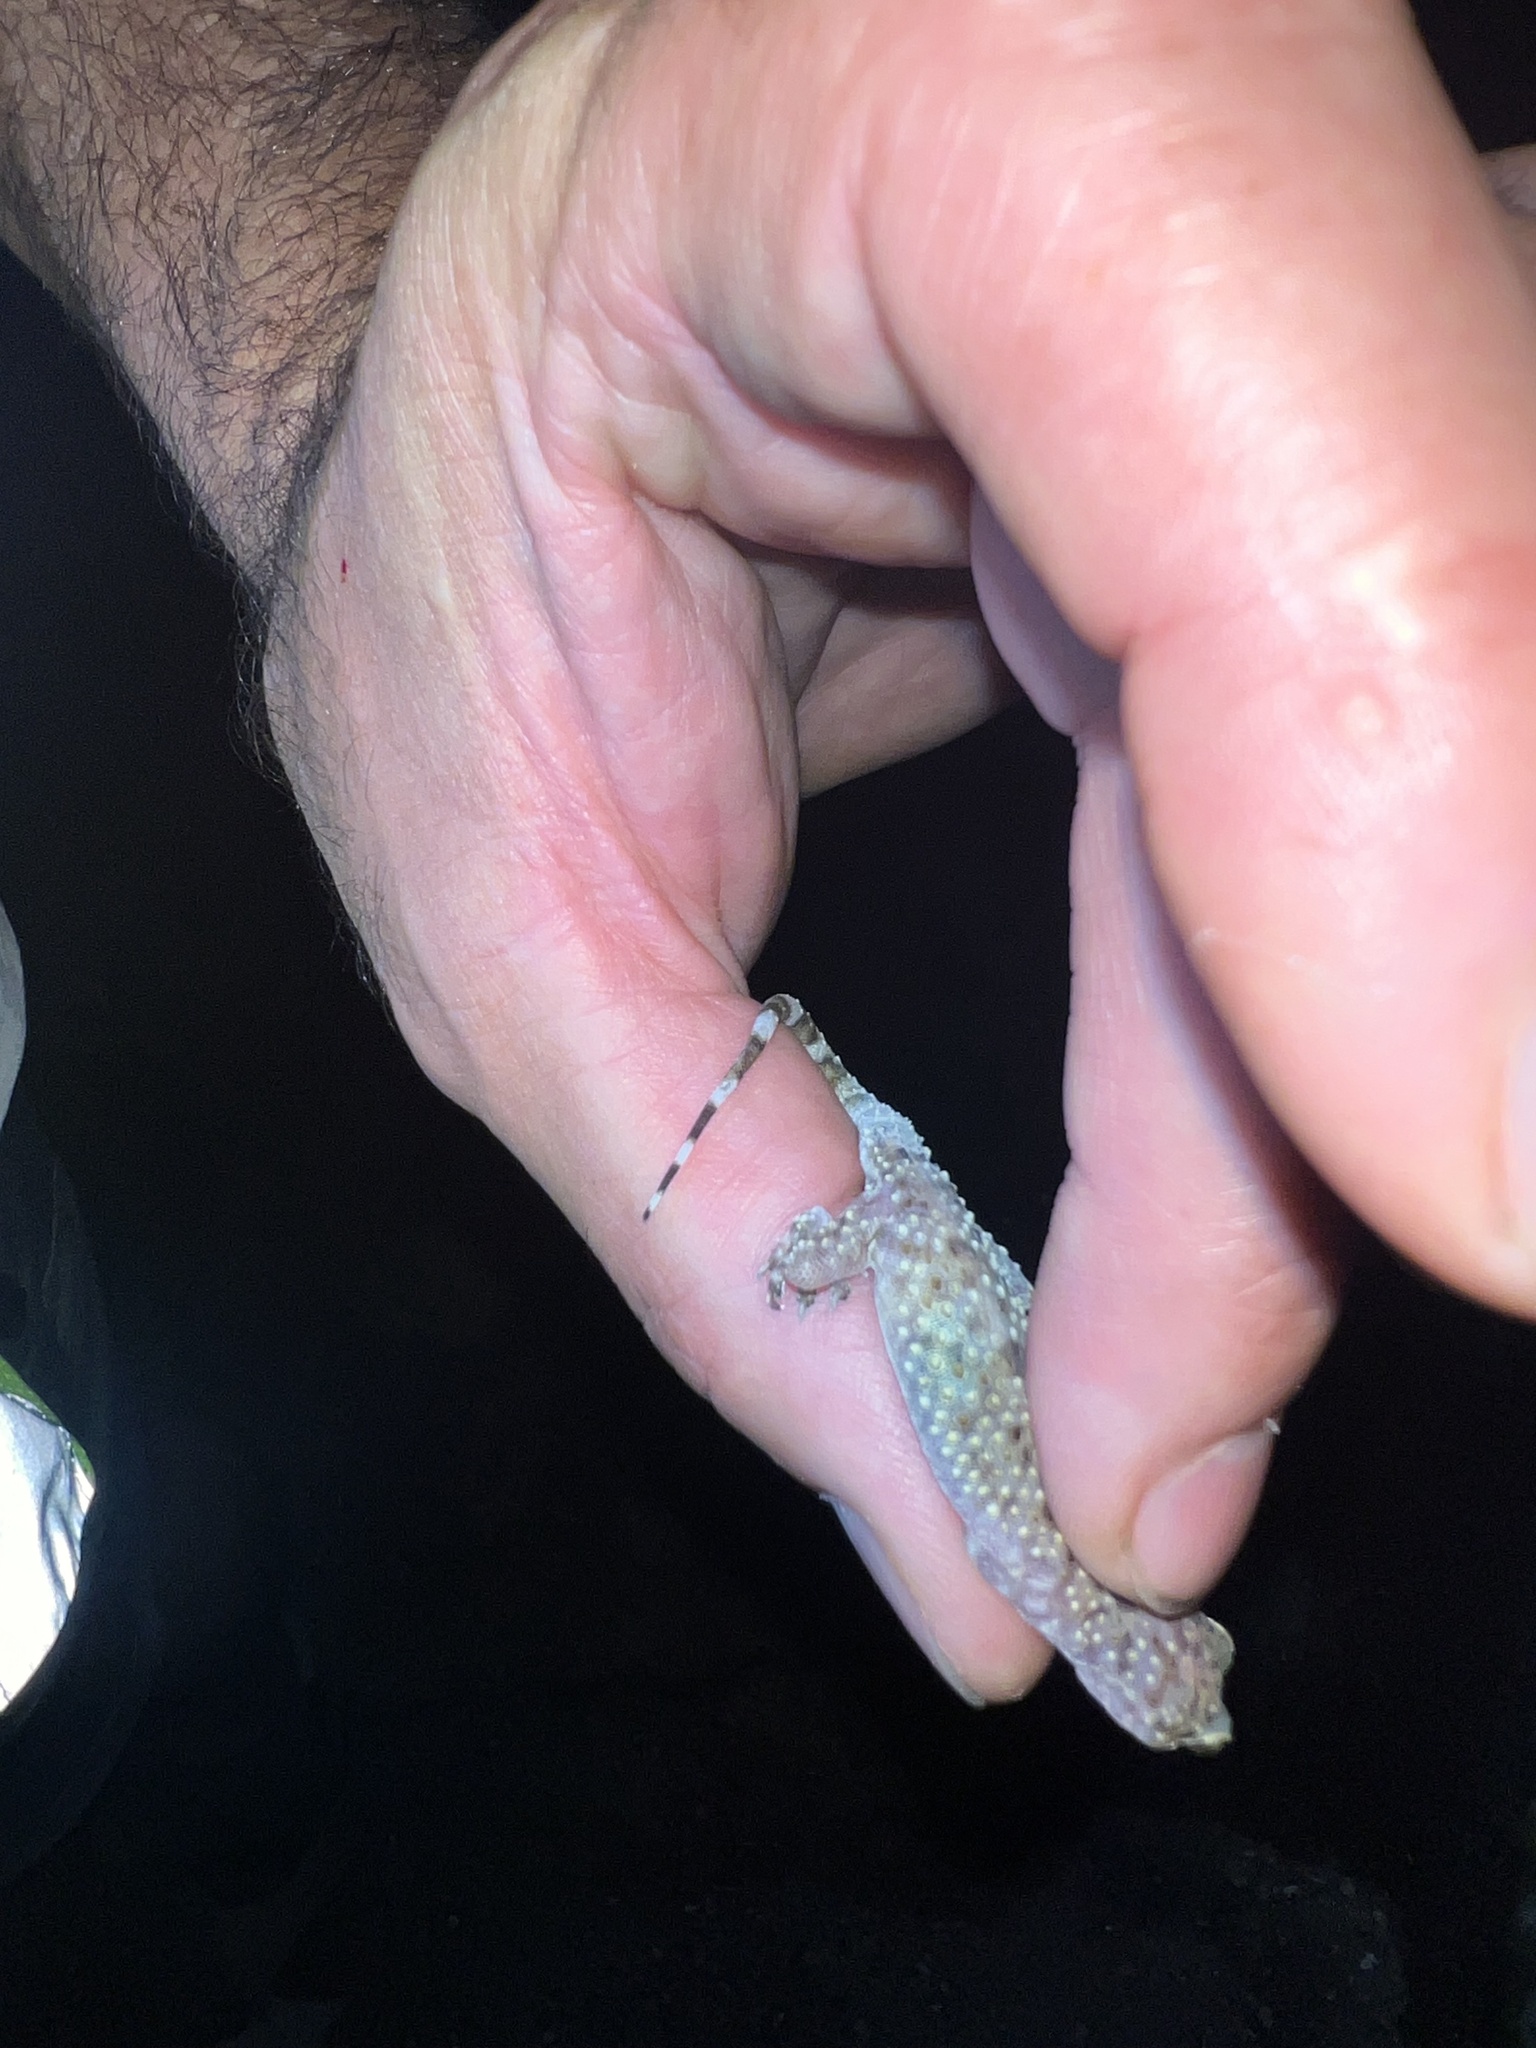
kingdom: Animalia
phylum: Chordata
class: Squamata
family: Gekkonidae
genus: Hemidactylus
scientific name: Hemidactylus turcicus
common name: Turkish gecko
